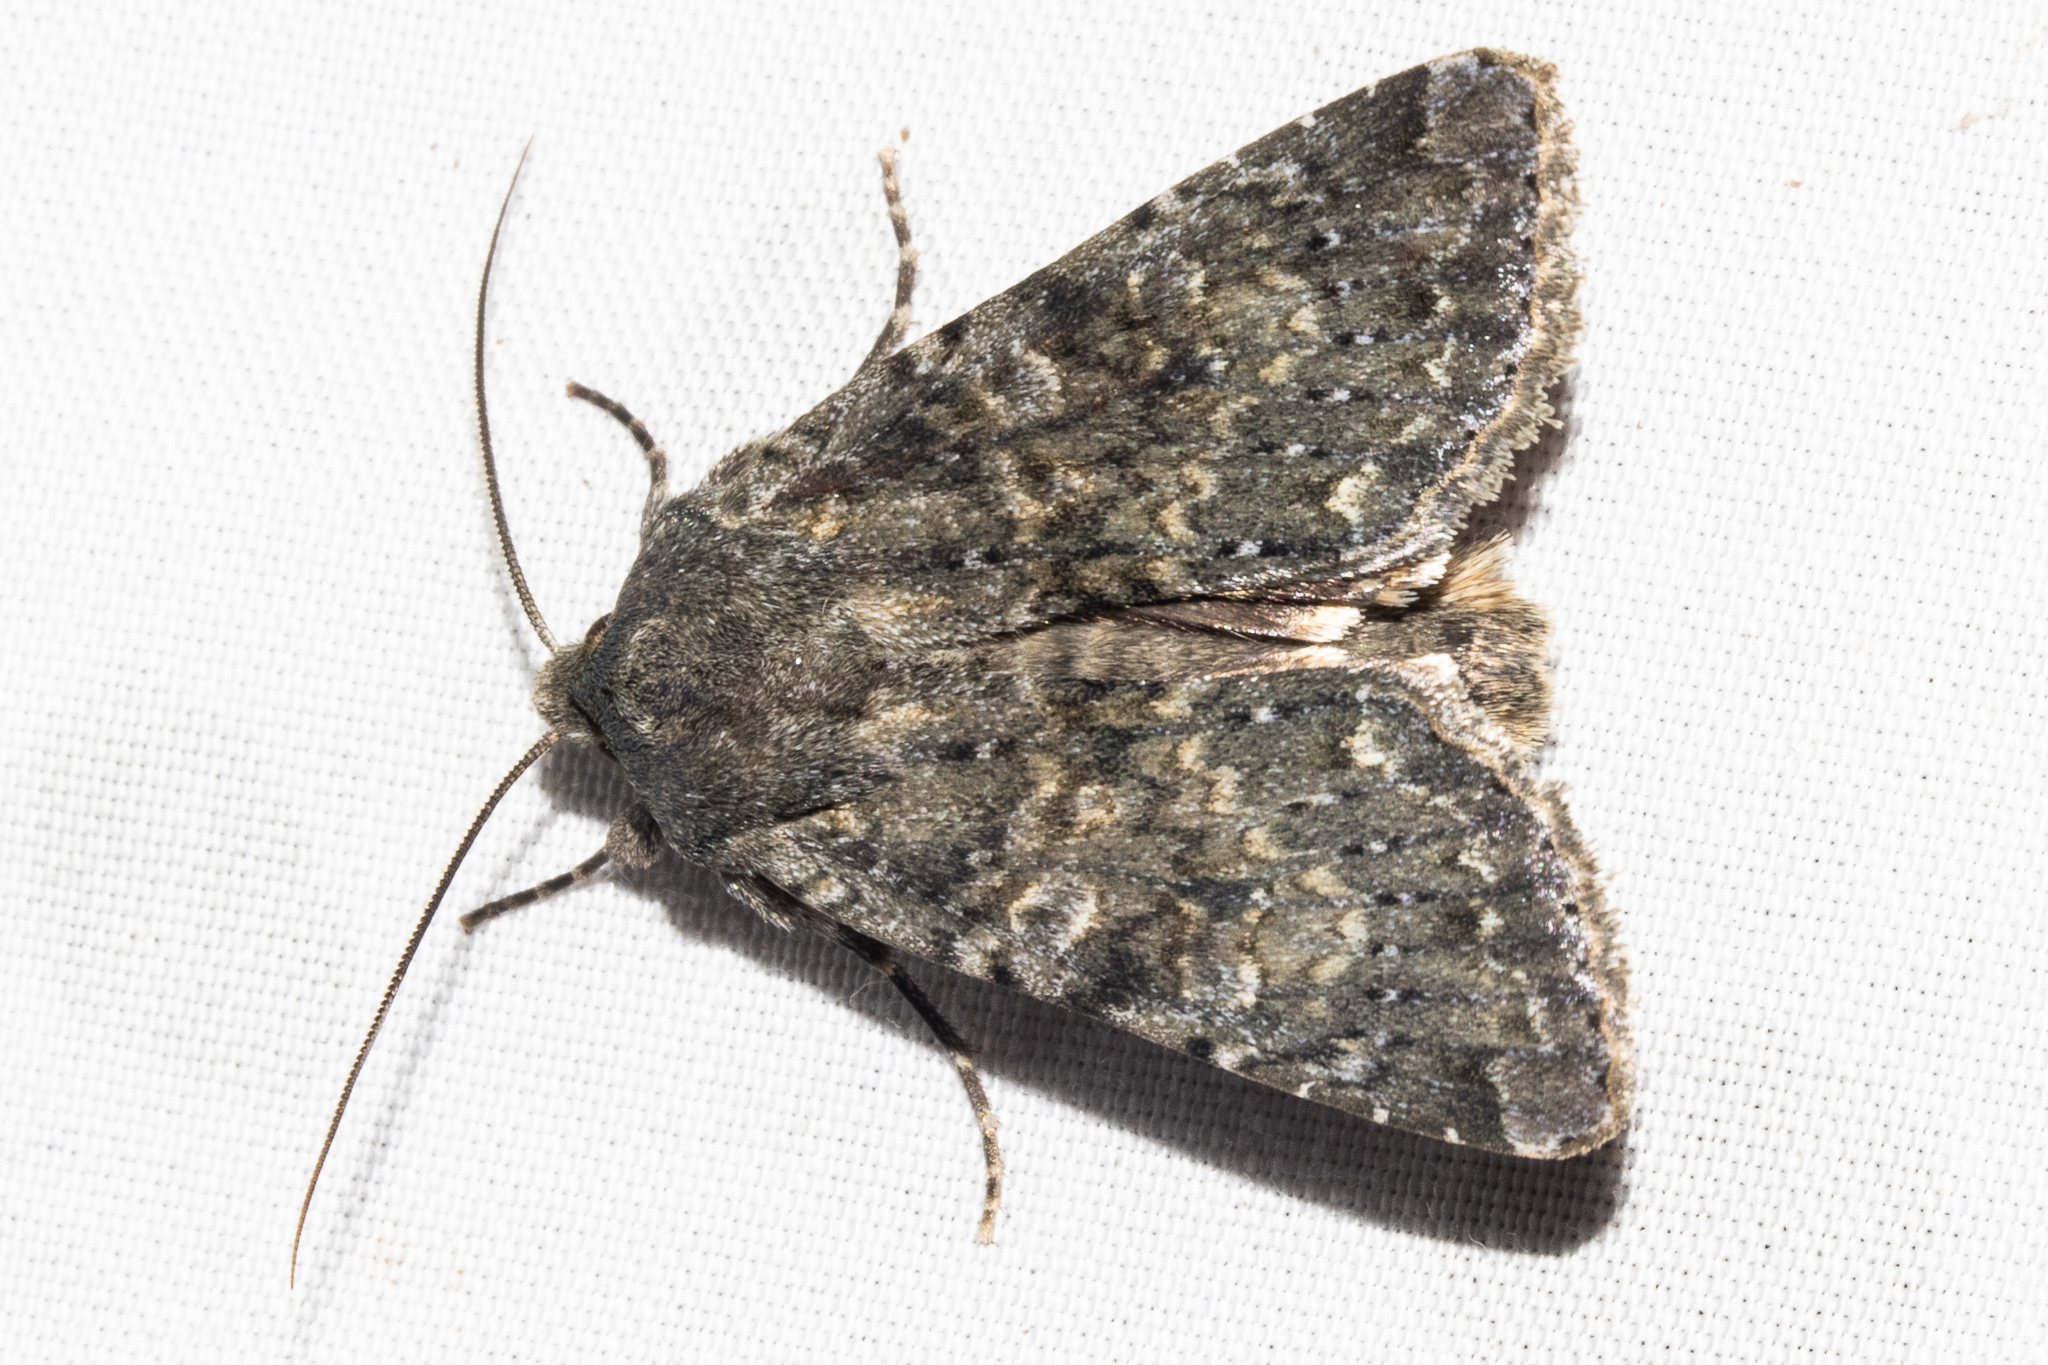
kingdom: Animalia
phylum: Arthropoda
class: Insecta
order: Lepidoptera
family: Noctuidae
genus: Ichneutica
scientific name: Ichneutica
